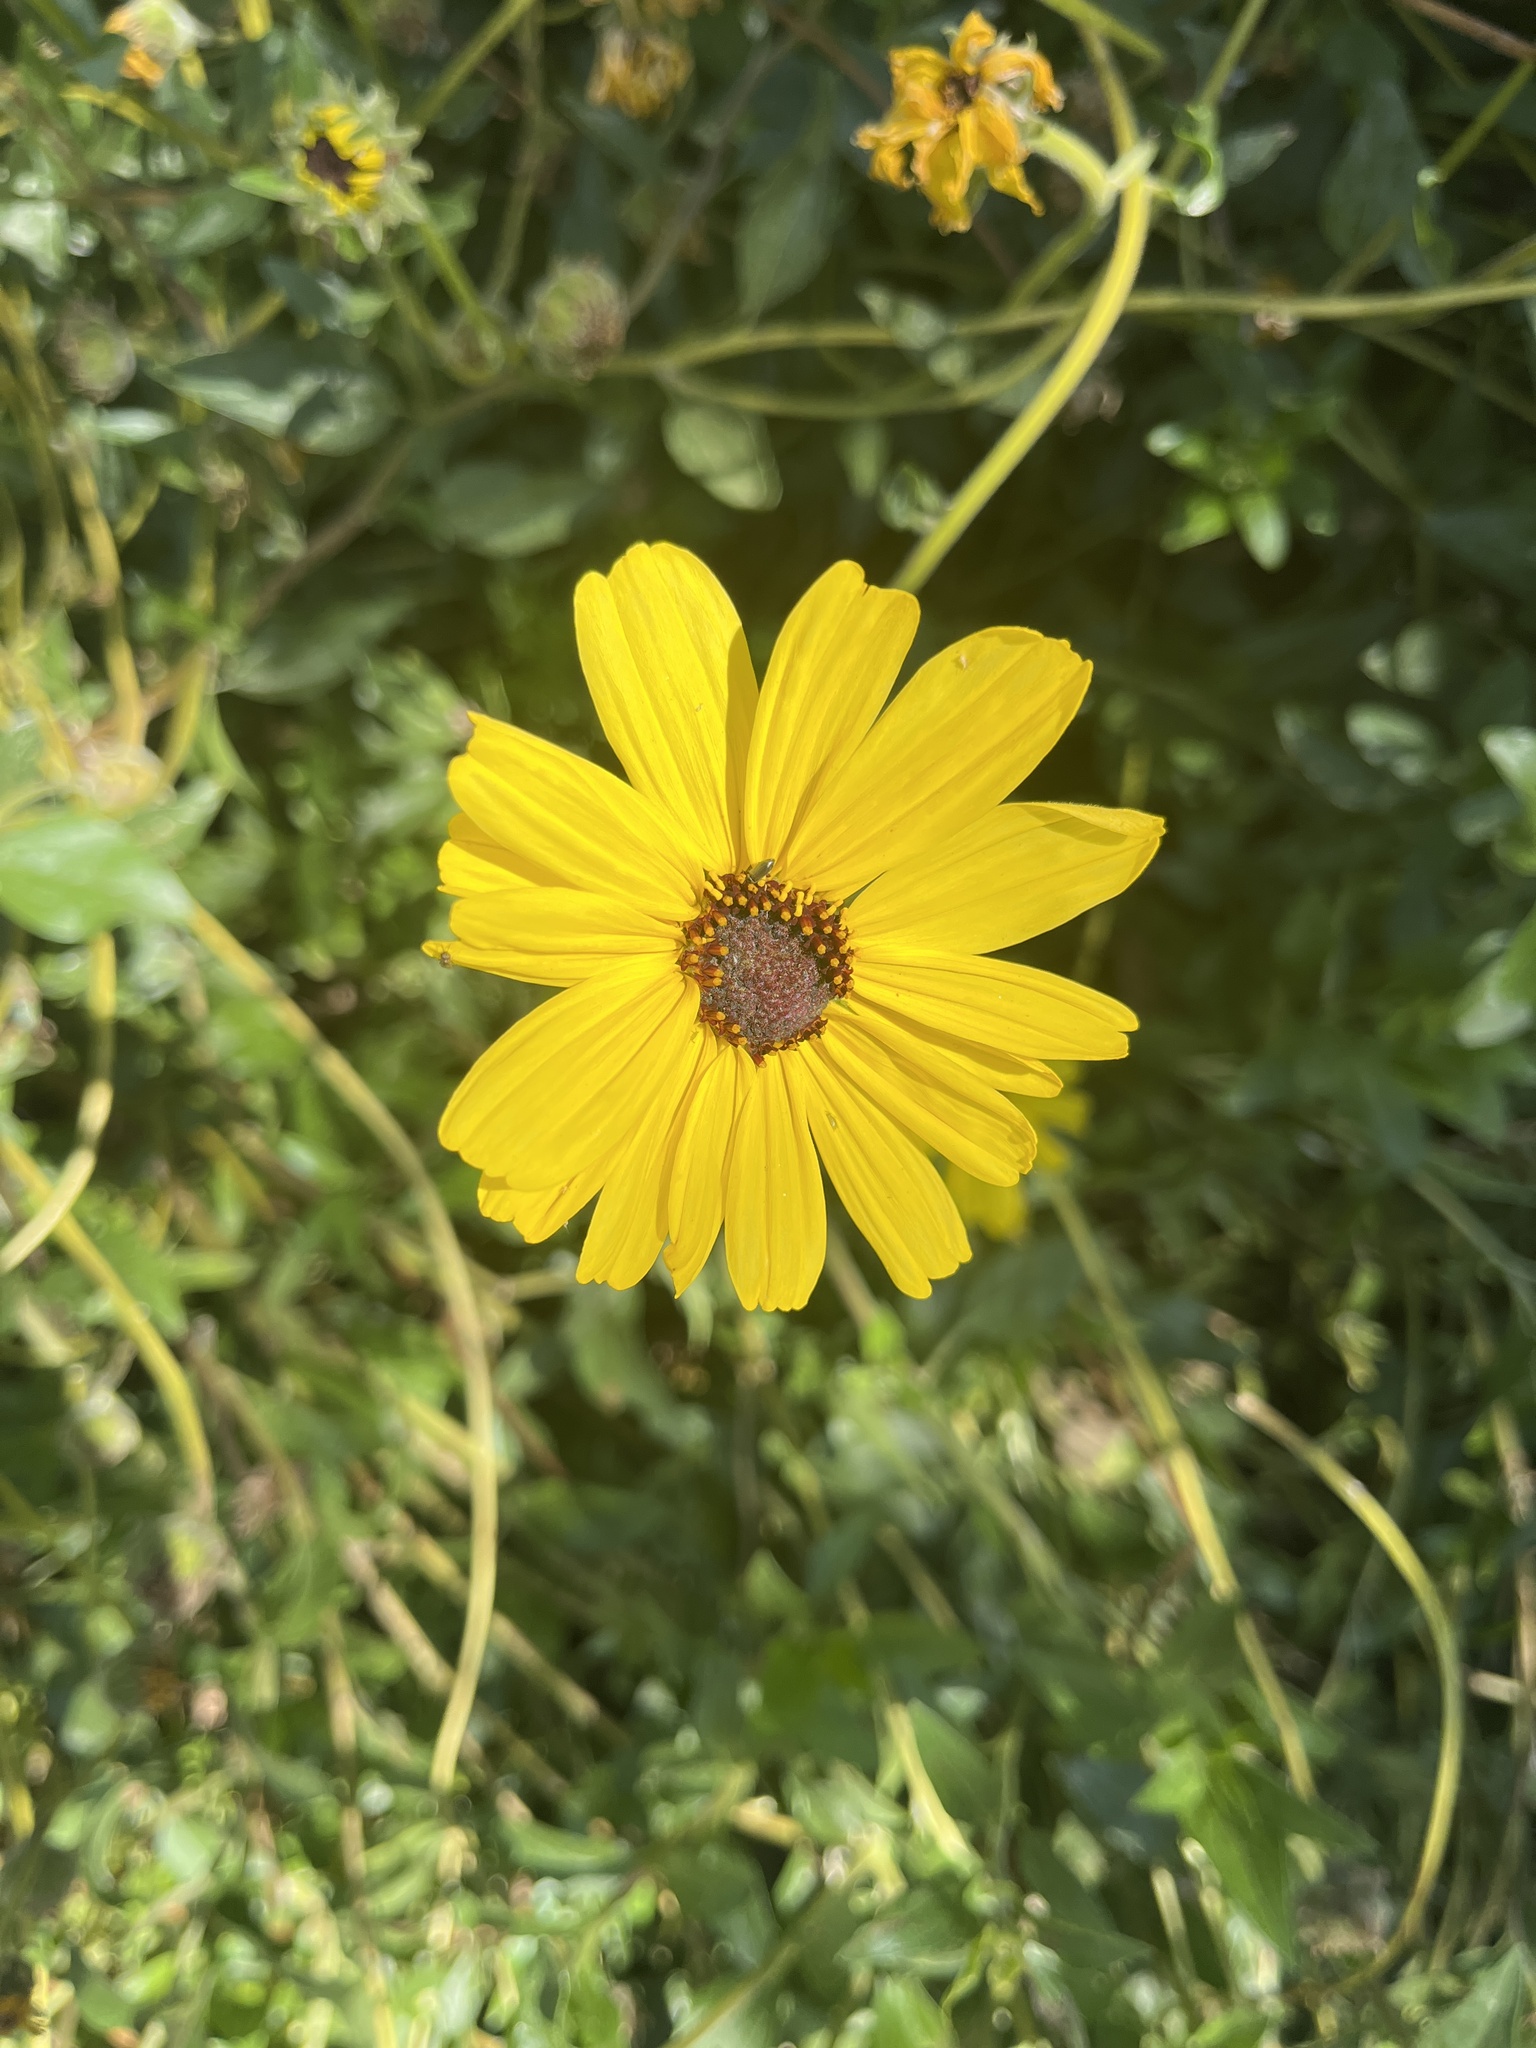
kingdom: Plantae
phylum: Tracheophyta
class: Magnoliopsida
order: Asterales
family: Asteraceae
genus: Encelia
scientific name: Encelia californica
